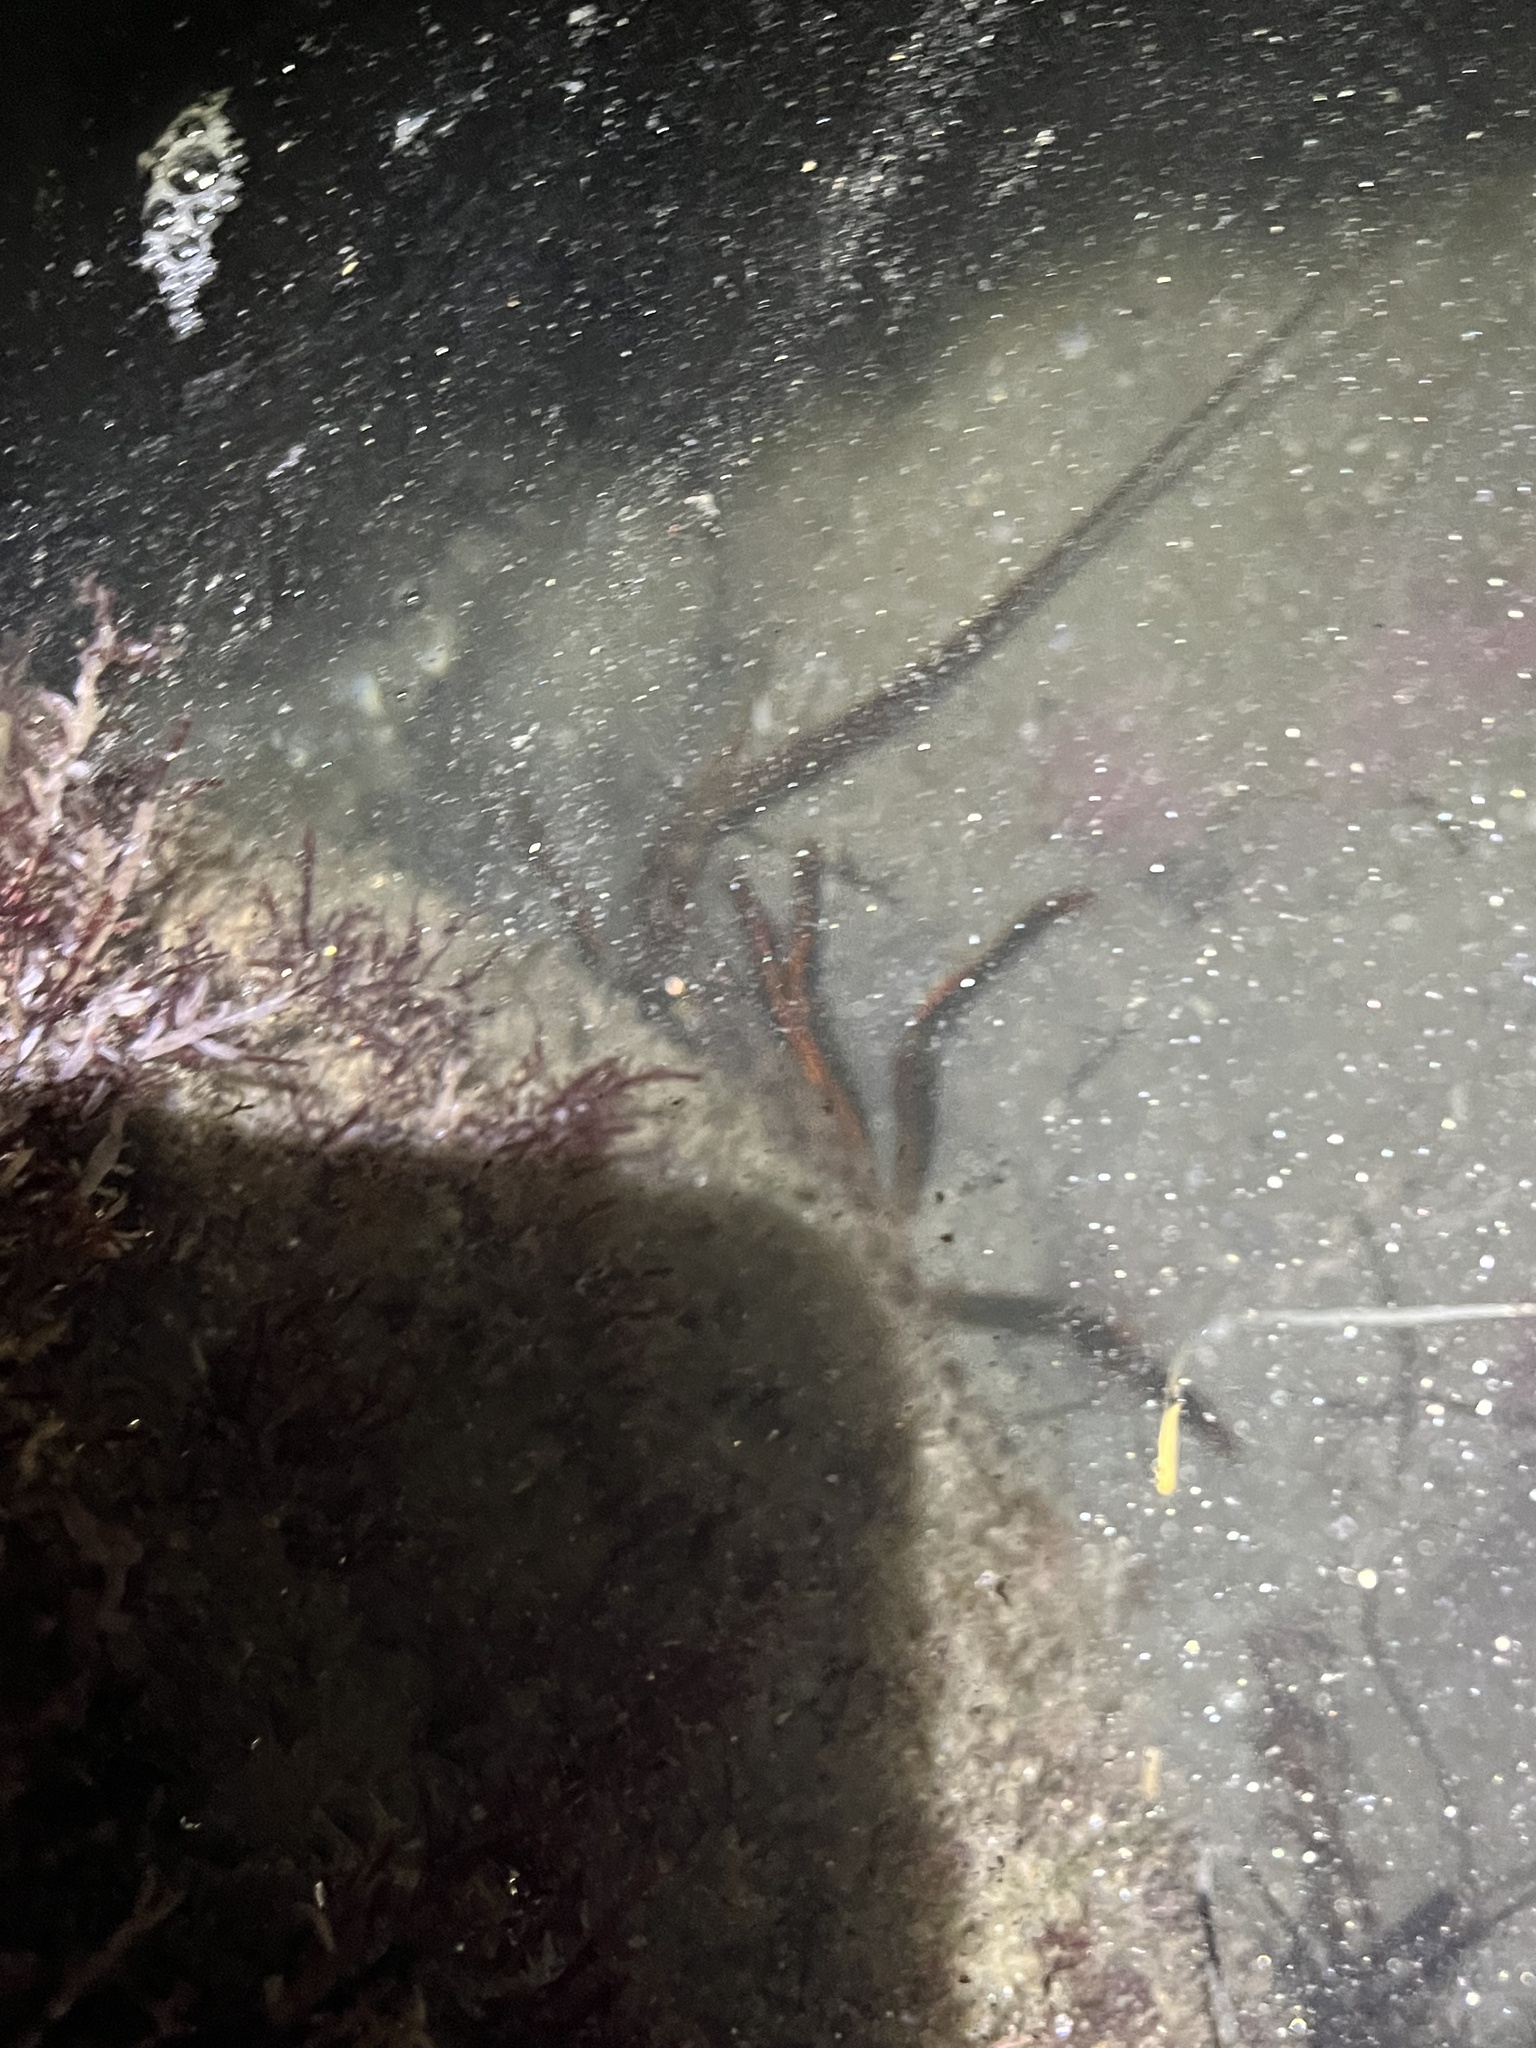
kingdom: Animalia
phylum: Arthropoda
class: Malacostraca
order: Decapoda
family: Palinuridae
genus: Panulirus
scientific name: Panulirus interruptus
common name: California spiny lobster
